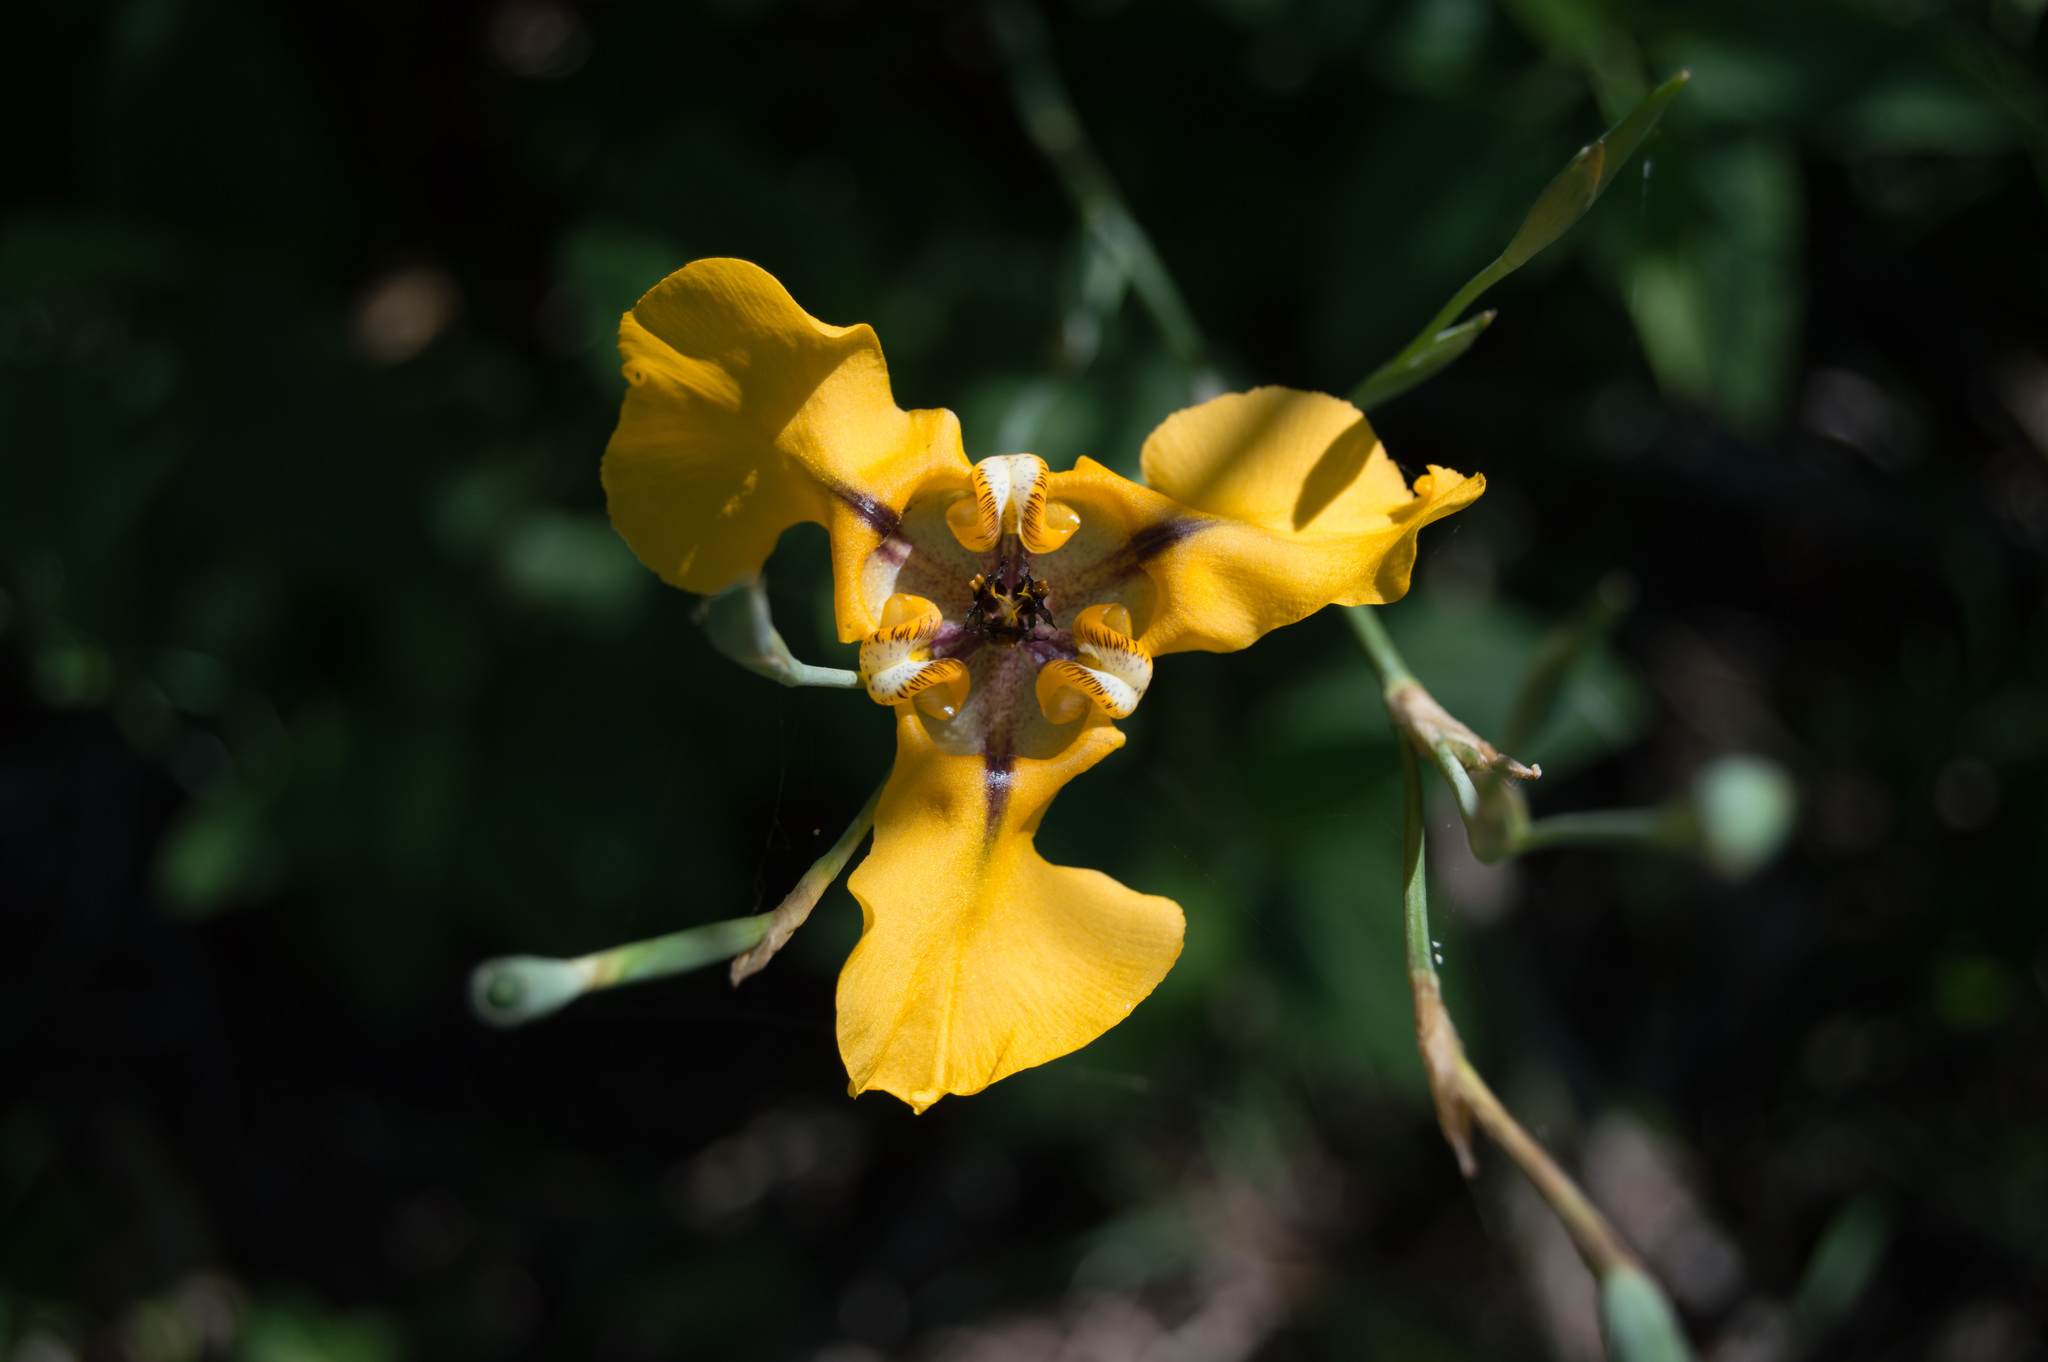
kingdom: Plantae
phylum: Tracheophyta
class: Liliopsida
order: Asparagales
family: Iridaceae
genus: Cypella
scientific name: Cypella herbertii
